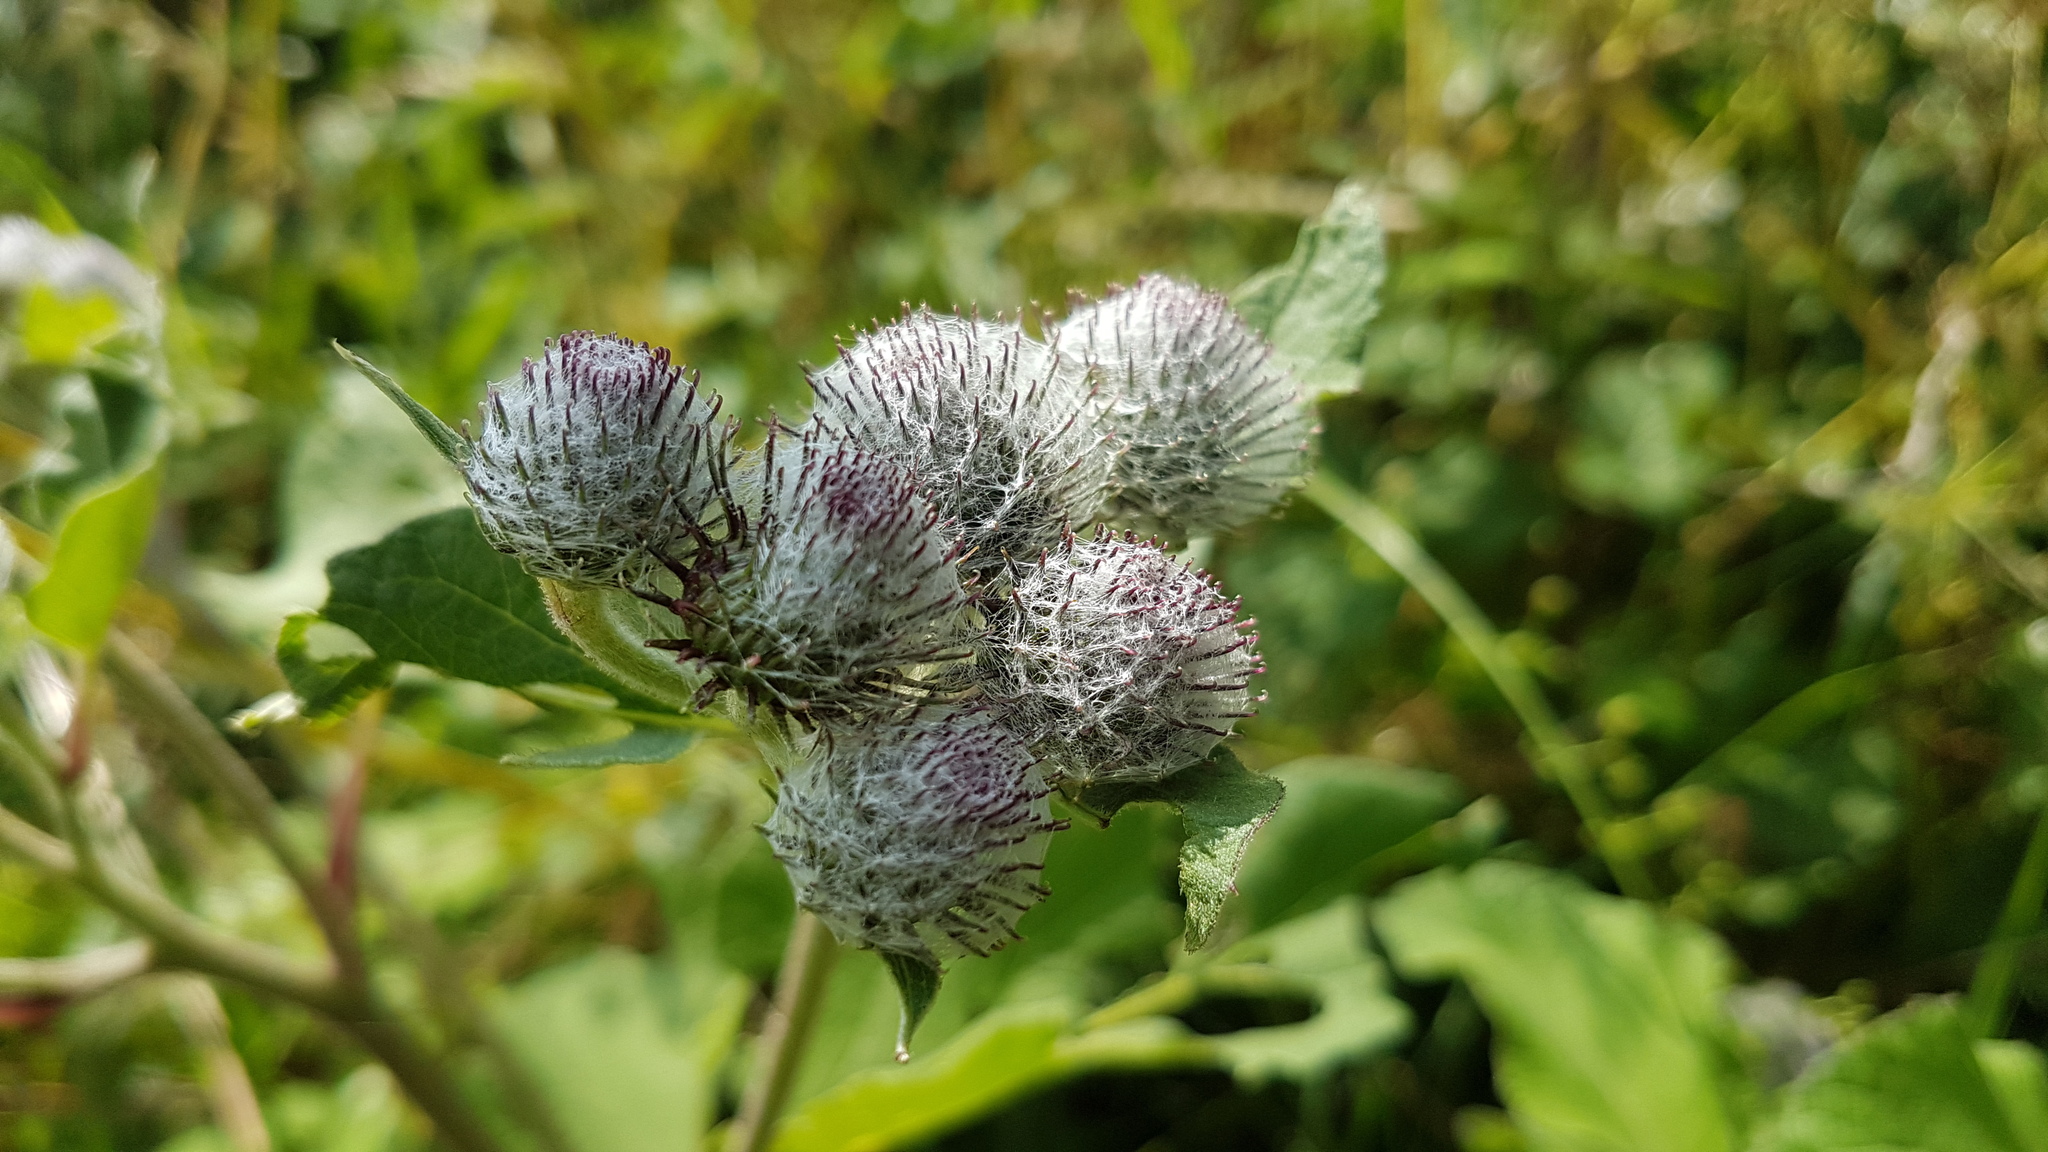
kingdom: Plantae
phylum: Tracheophyta
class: Magnoliopsida
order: Asterales
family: Asteraceae
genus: Arctium
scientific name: Arctium tomentosum
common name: Woolly burdock
